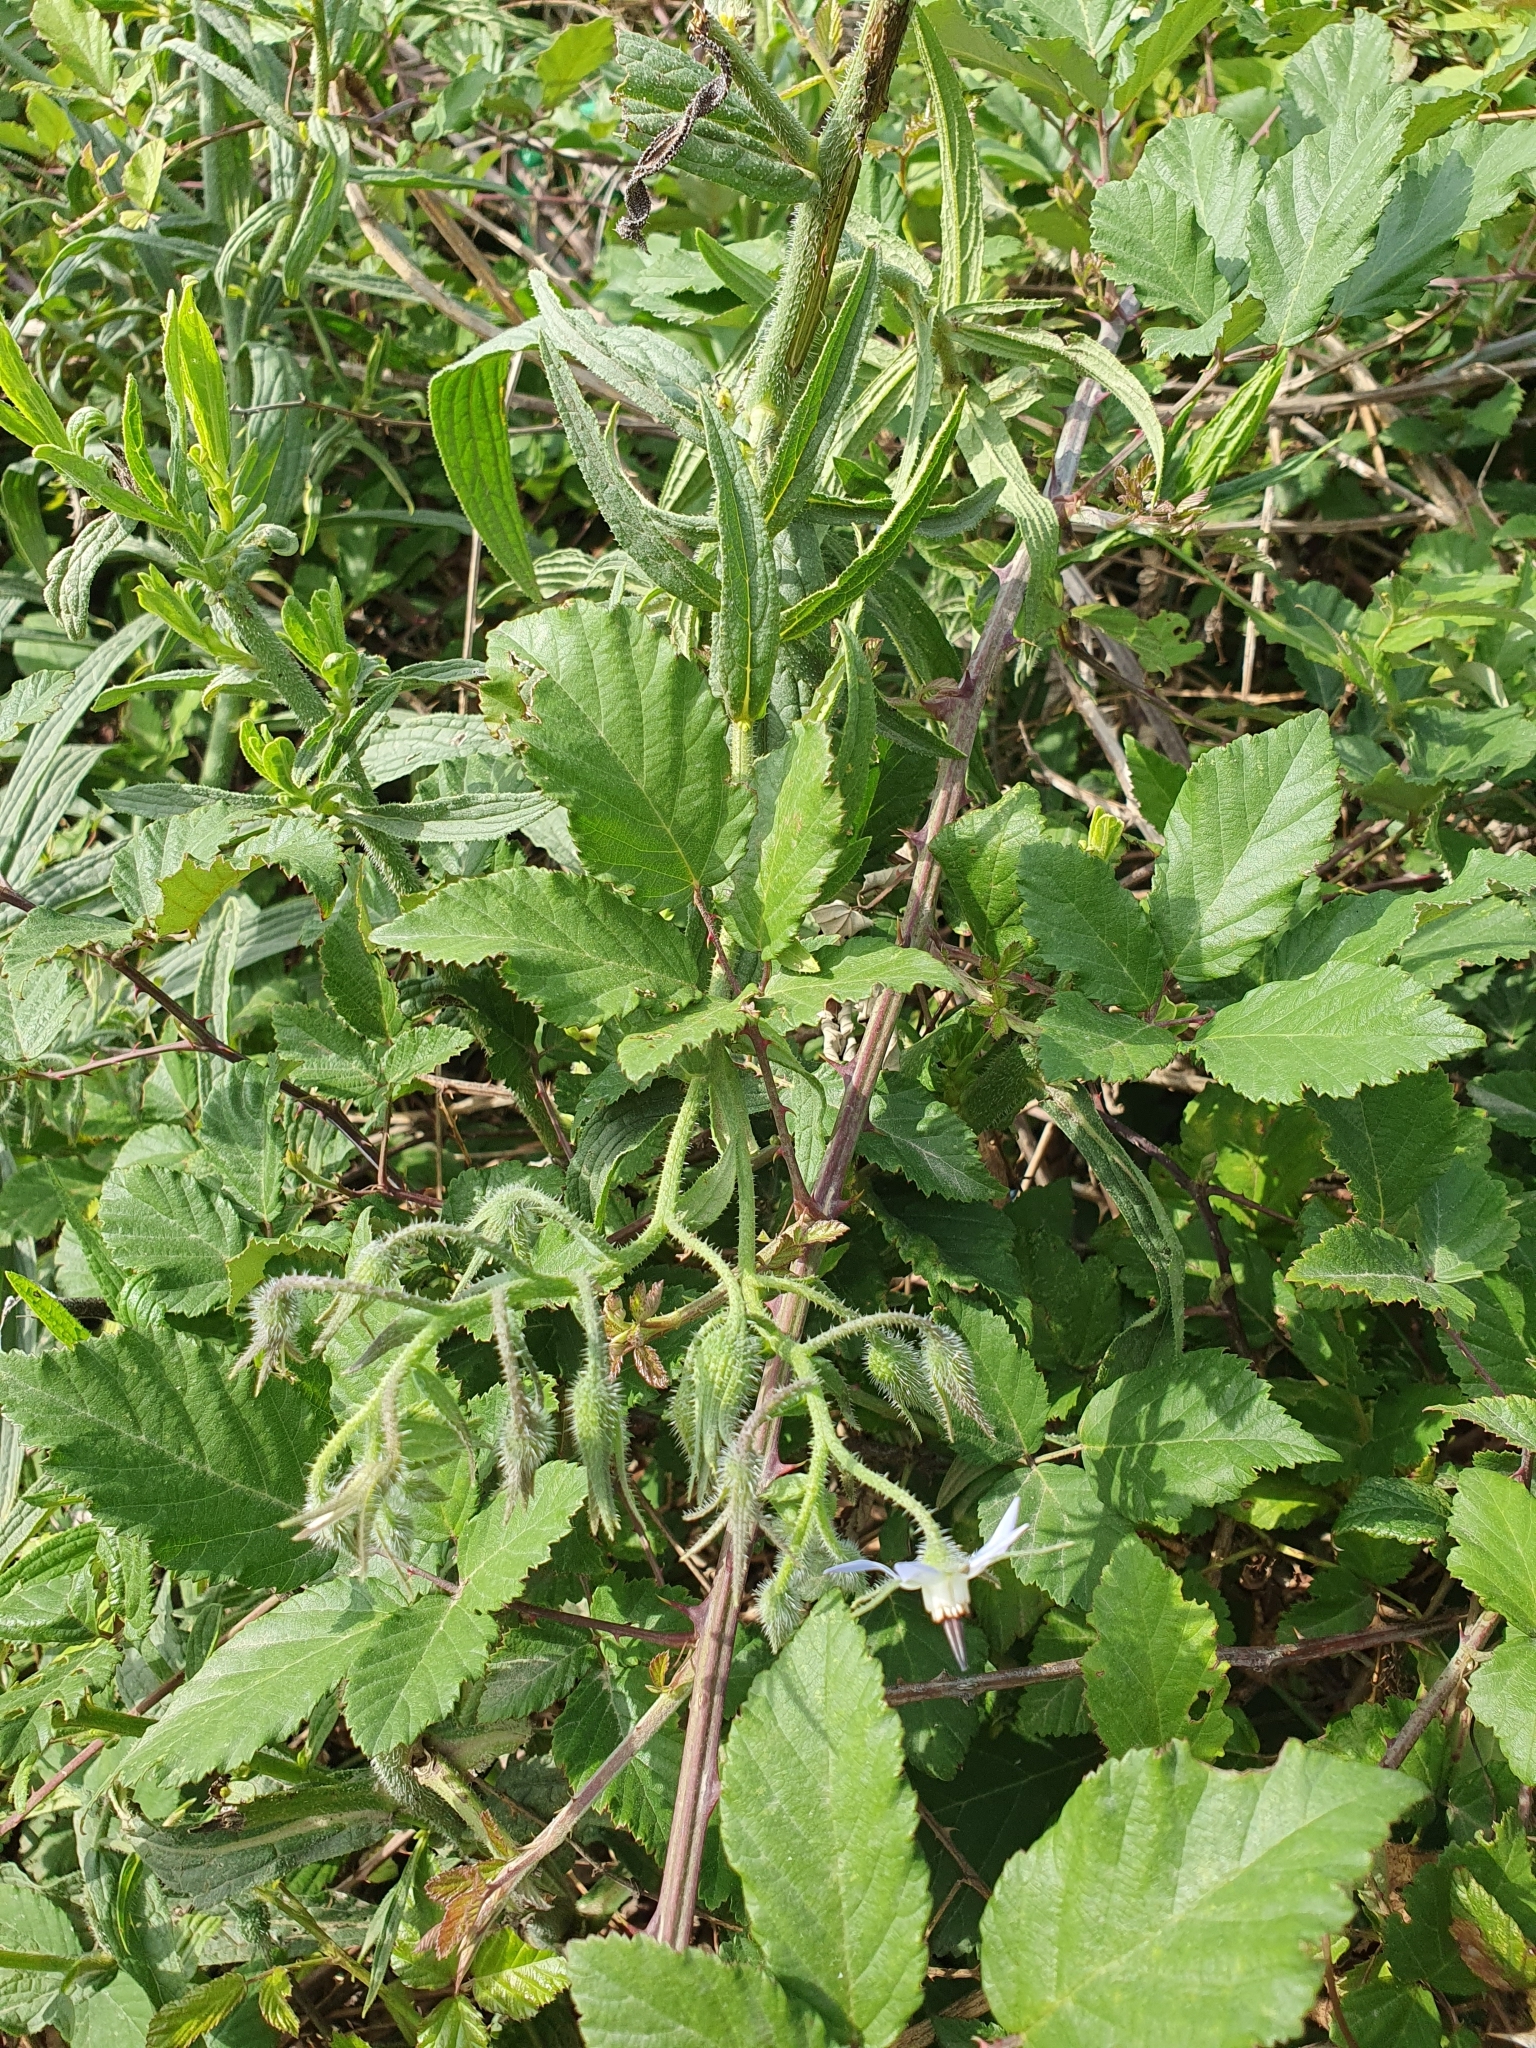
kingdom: Plantae
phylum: Tracheophyta
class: Magnoliopsida
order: Boraginales
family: Boraginaceae
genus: Borago
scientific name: Borago longifolia
